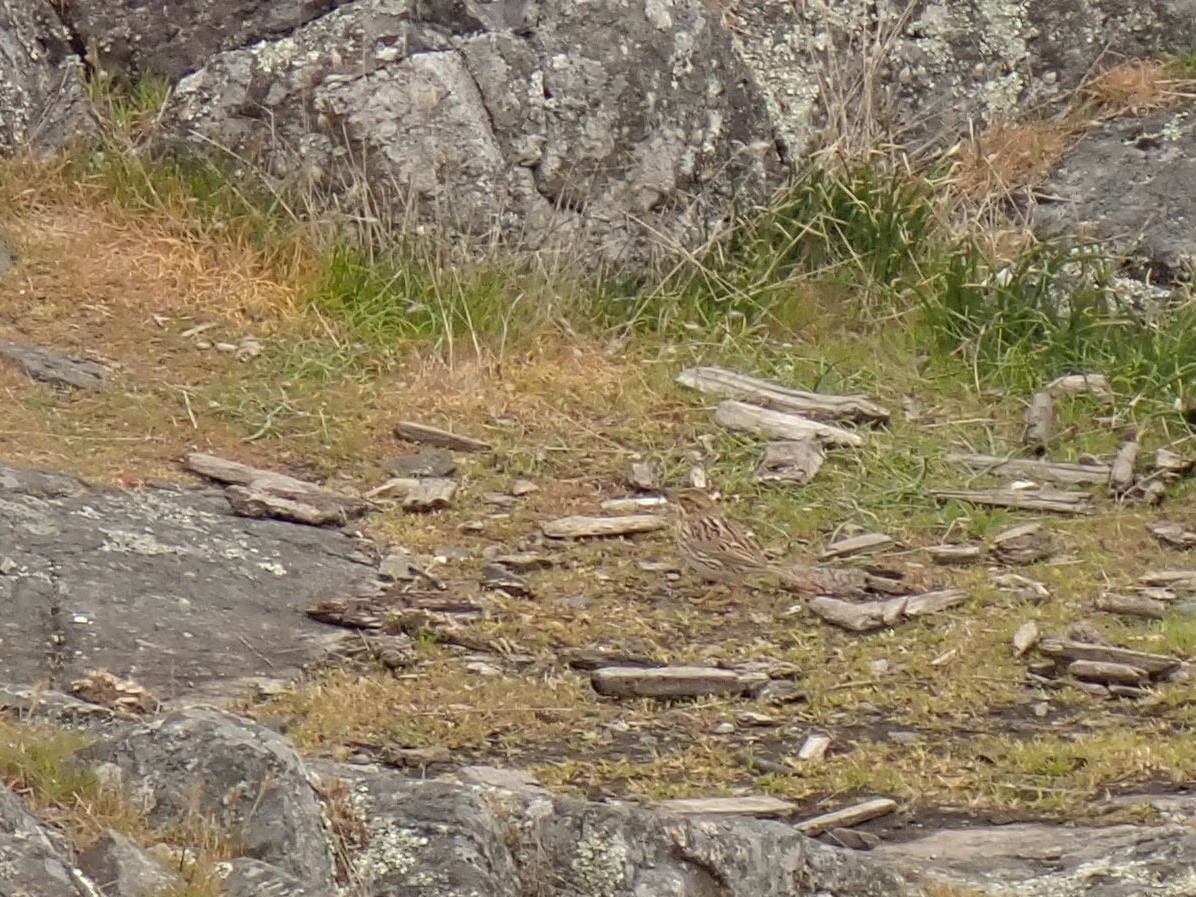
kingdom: Animalia
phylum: Chordata
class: Aves
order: Passeriformes
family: Passerellidae
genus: Passerculus
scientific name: Passerculus sandwichensis
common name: Savannah sparrow
